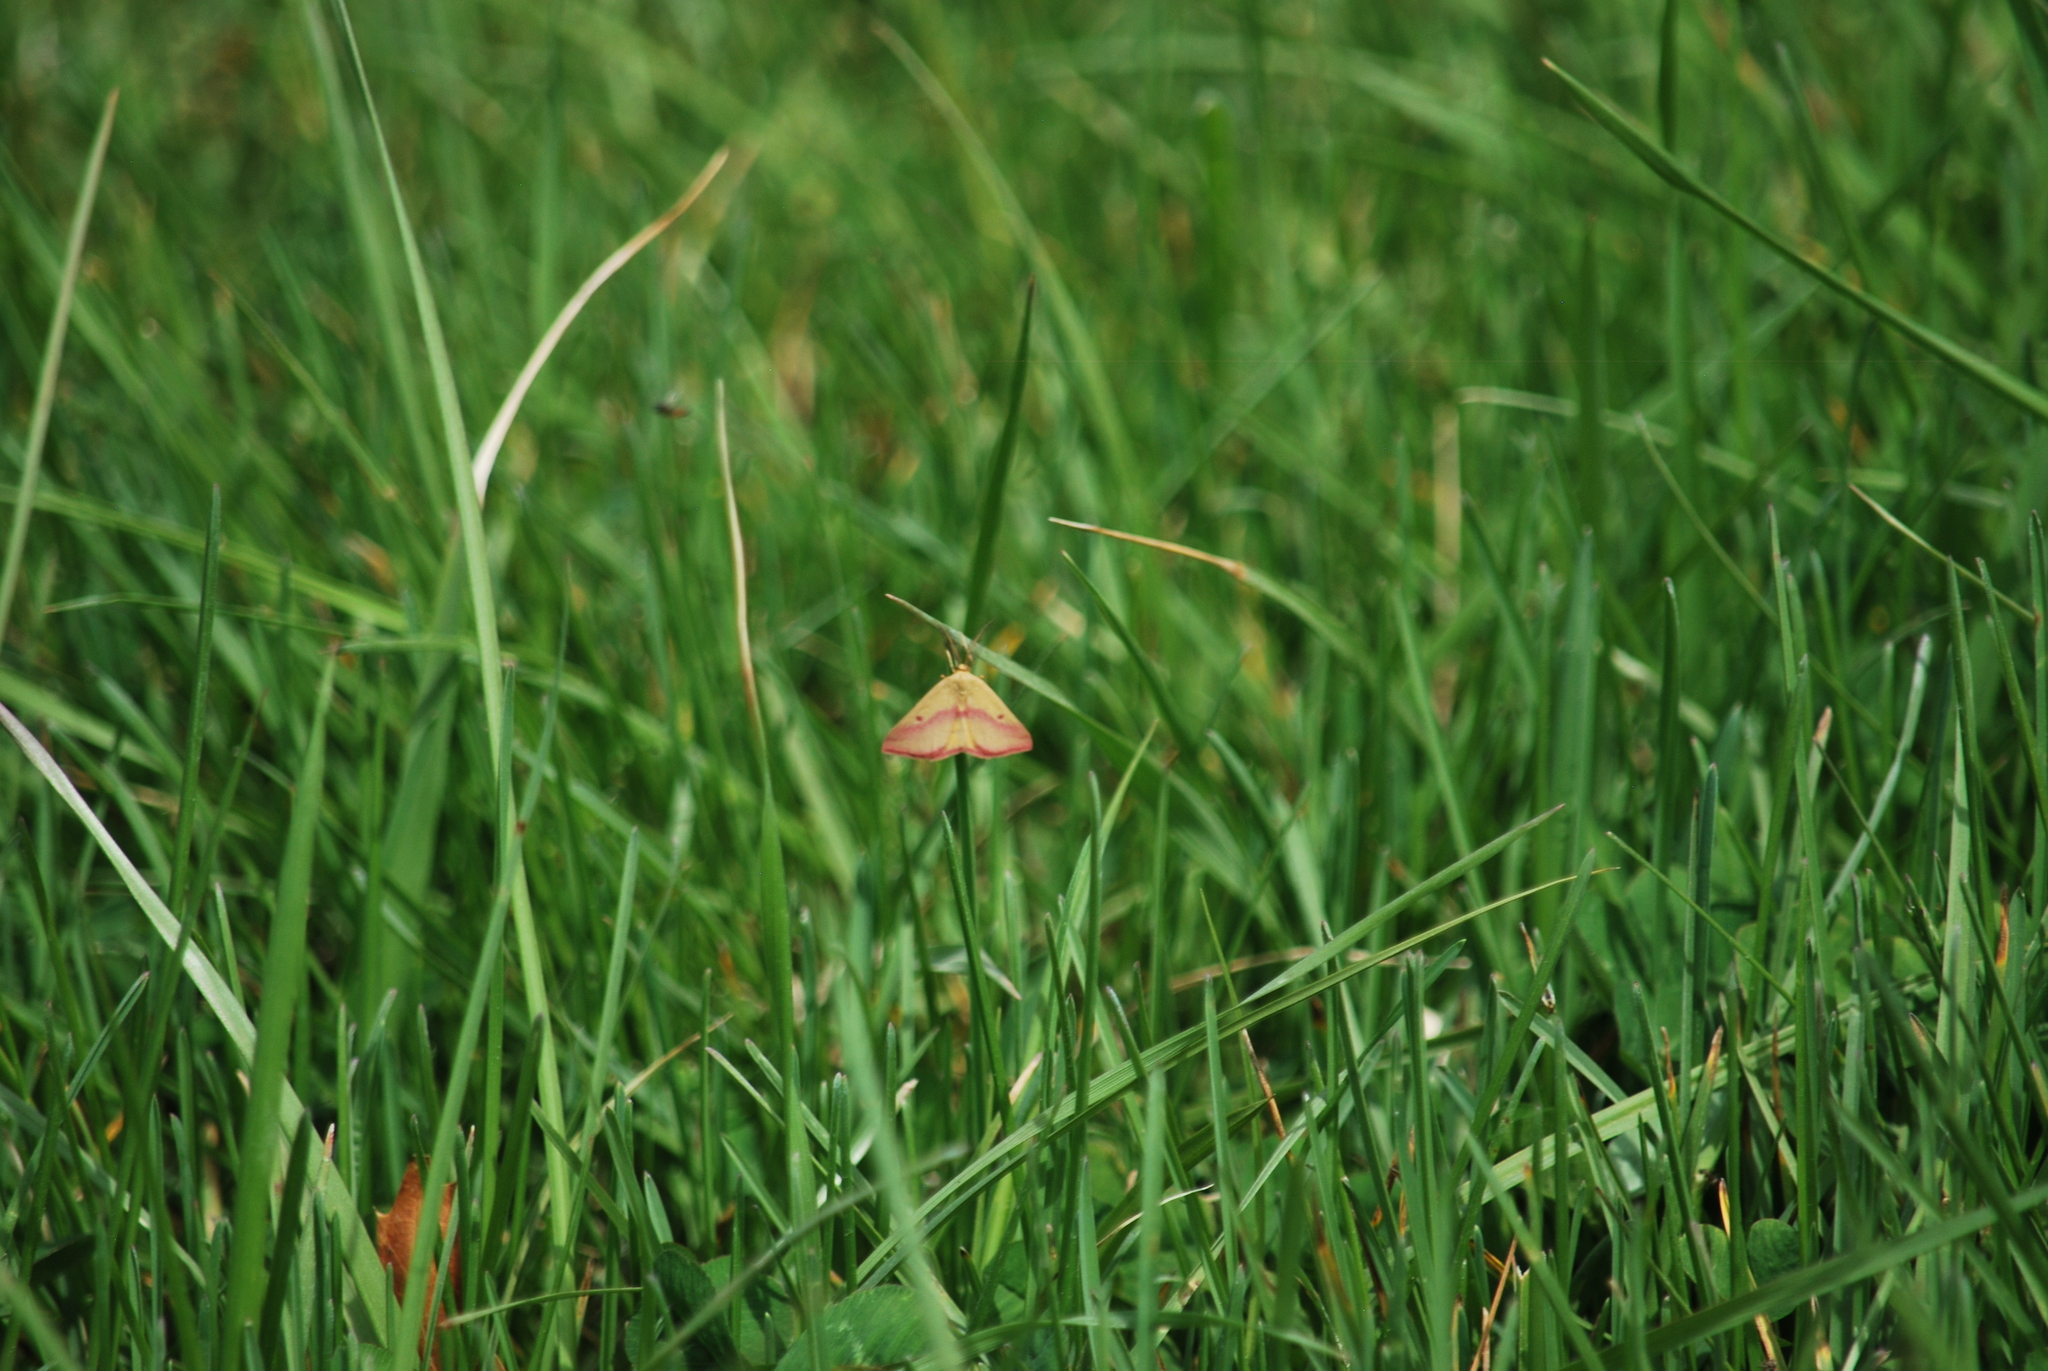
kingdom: Animalia
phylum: Arthropoda
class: Insecta
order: Lepidoptera
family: Geometridae
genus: Haematopis
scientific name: Haematopis grataria
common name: Chickweed geometer
